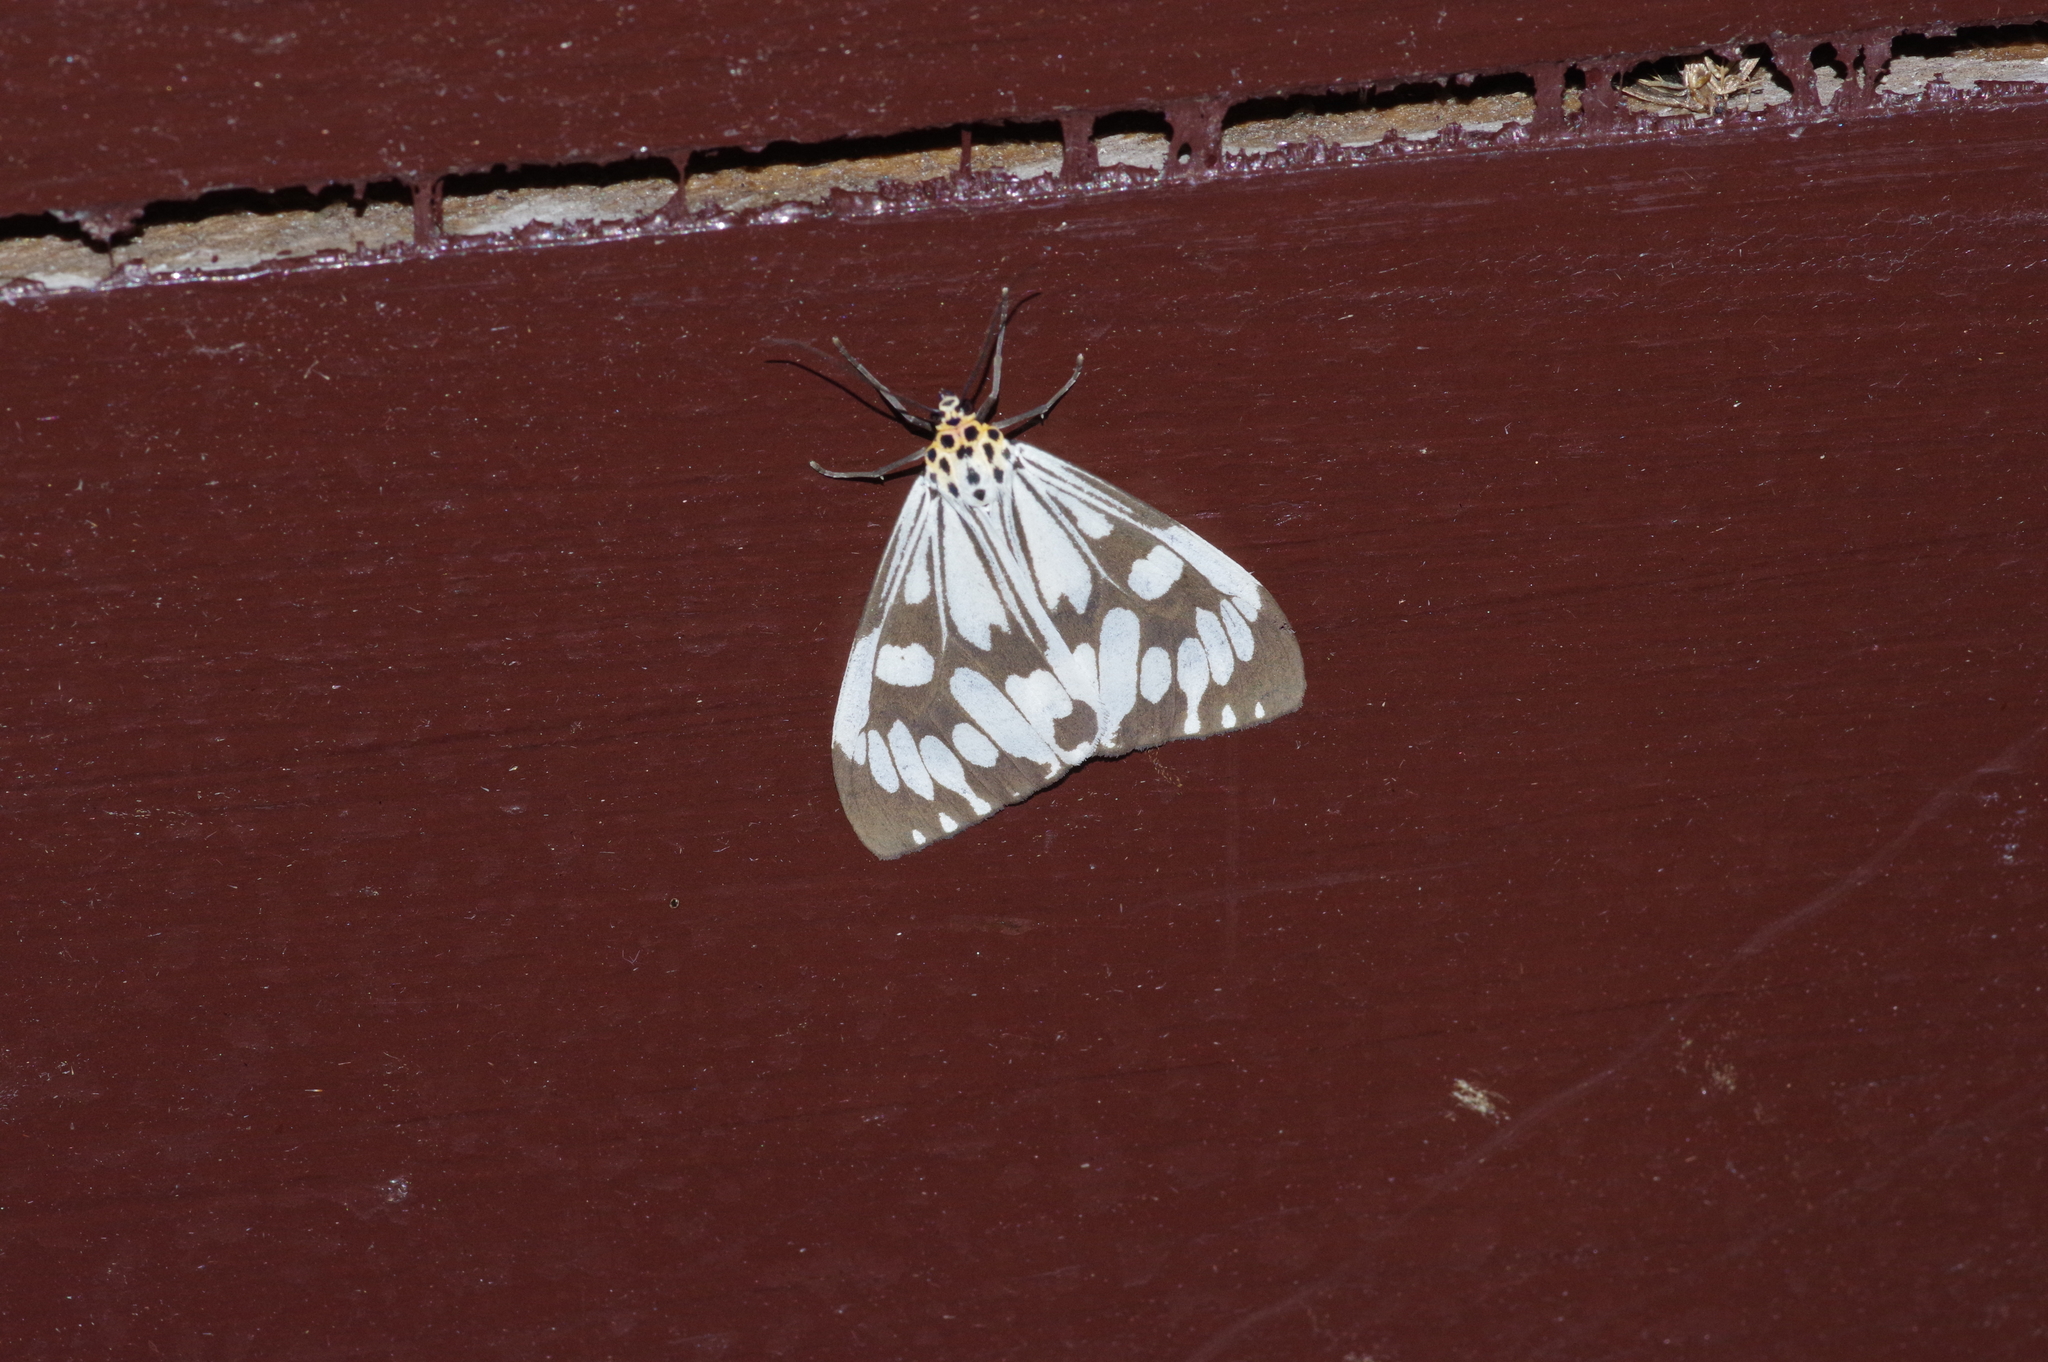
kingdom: Animalia
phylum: Arthropoda
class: Insecta
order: Lepidoptera
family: Erebidae
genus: Nyctemera
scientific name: Nyctemera adversata
